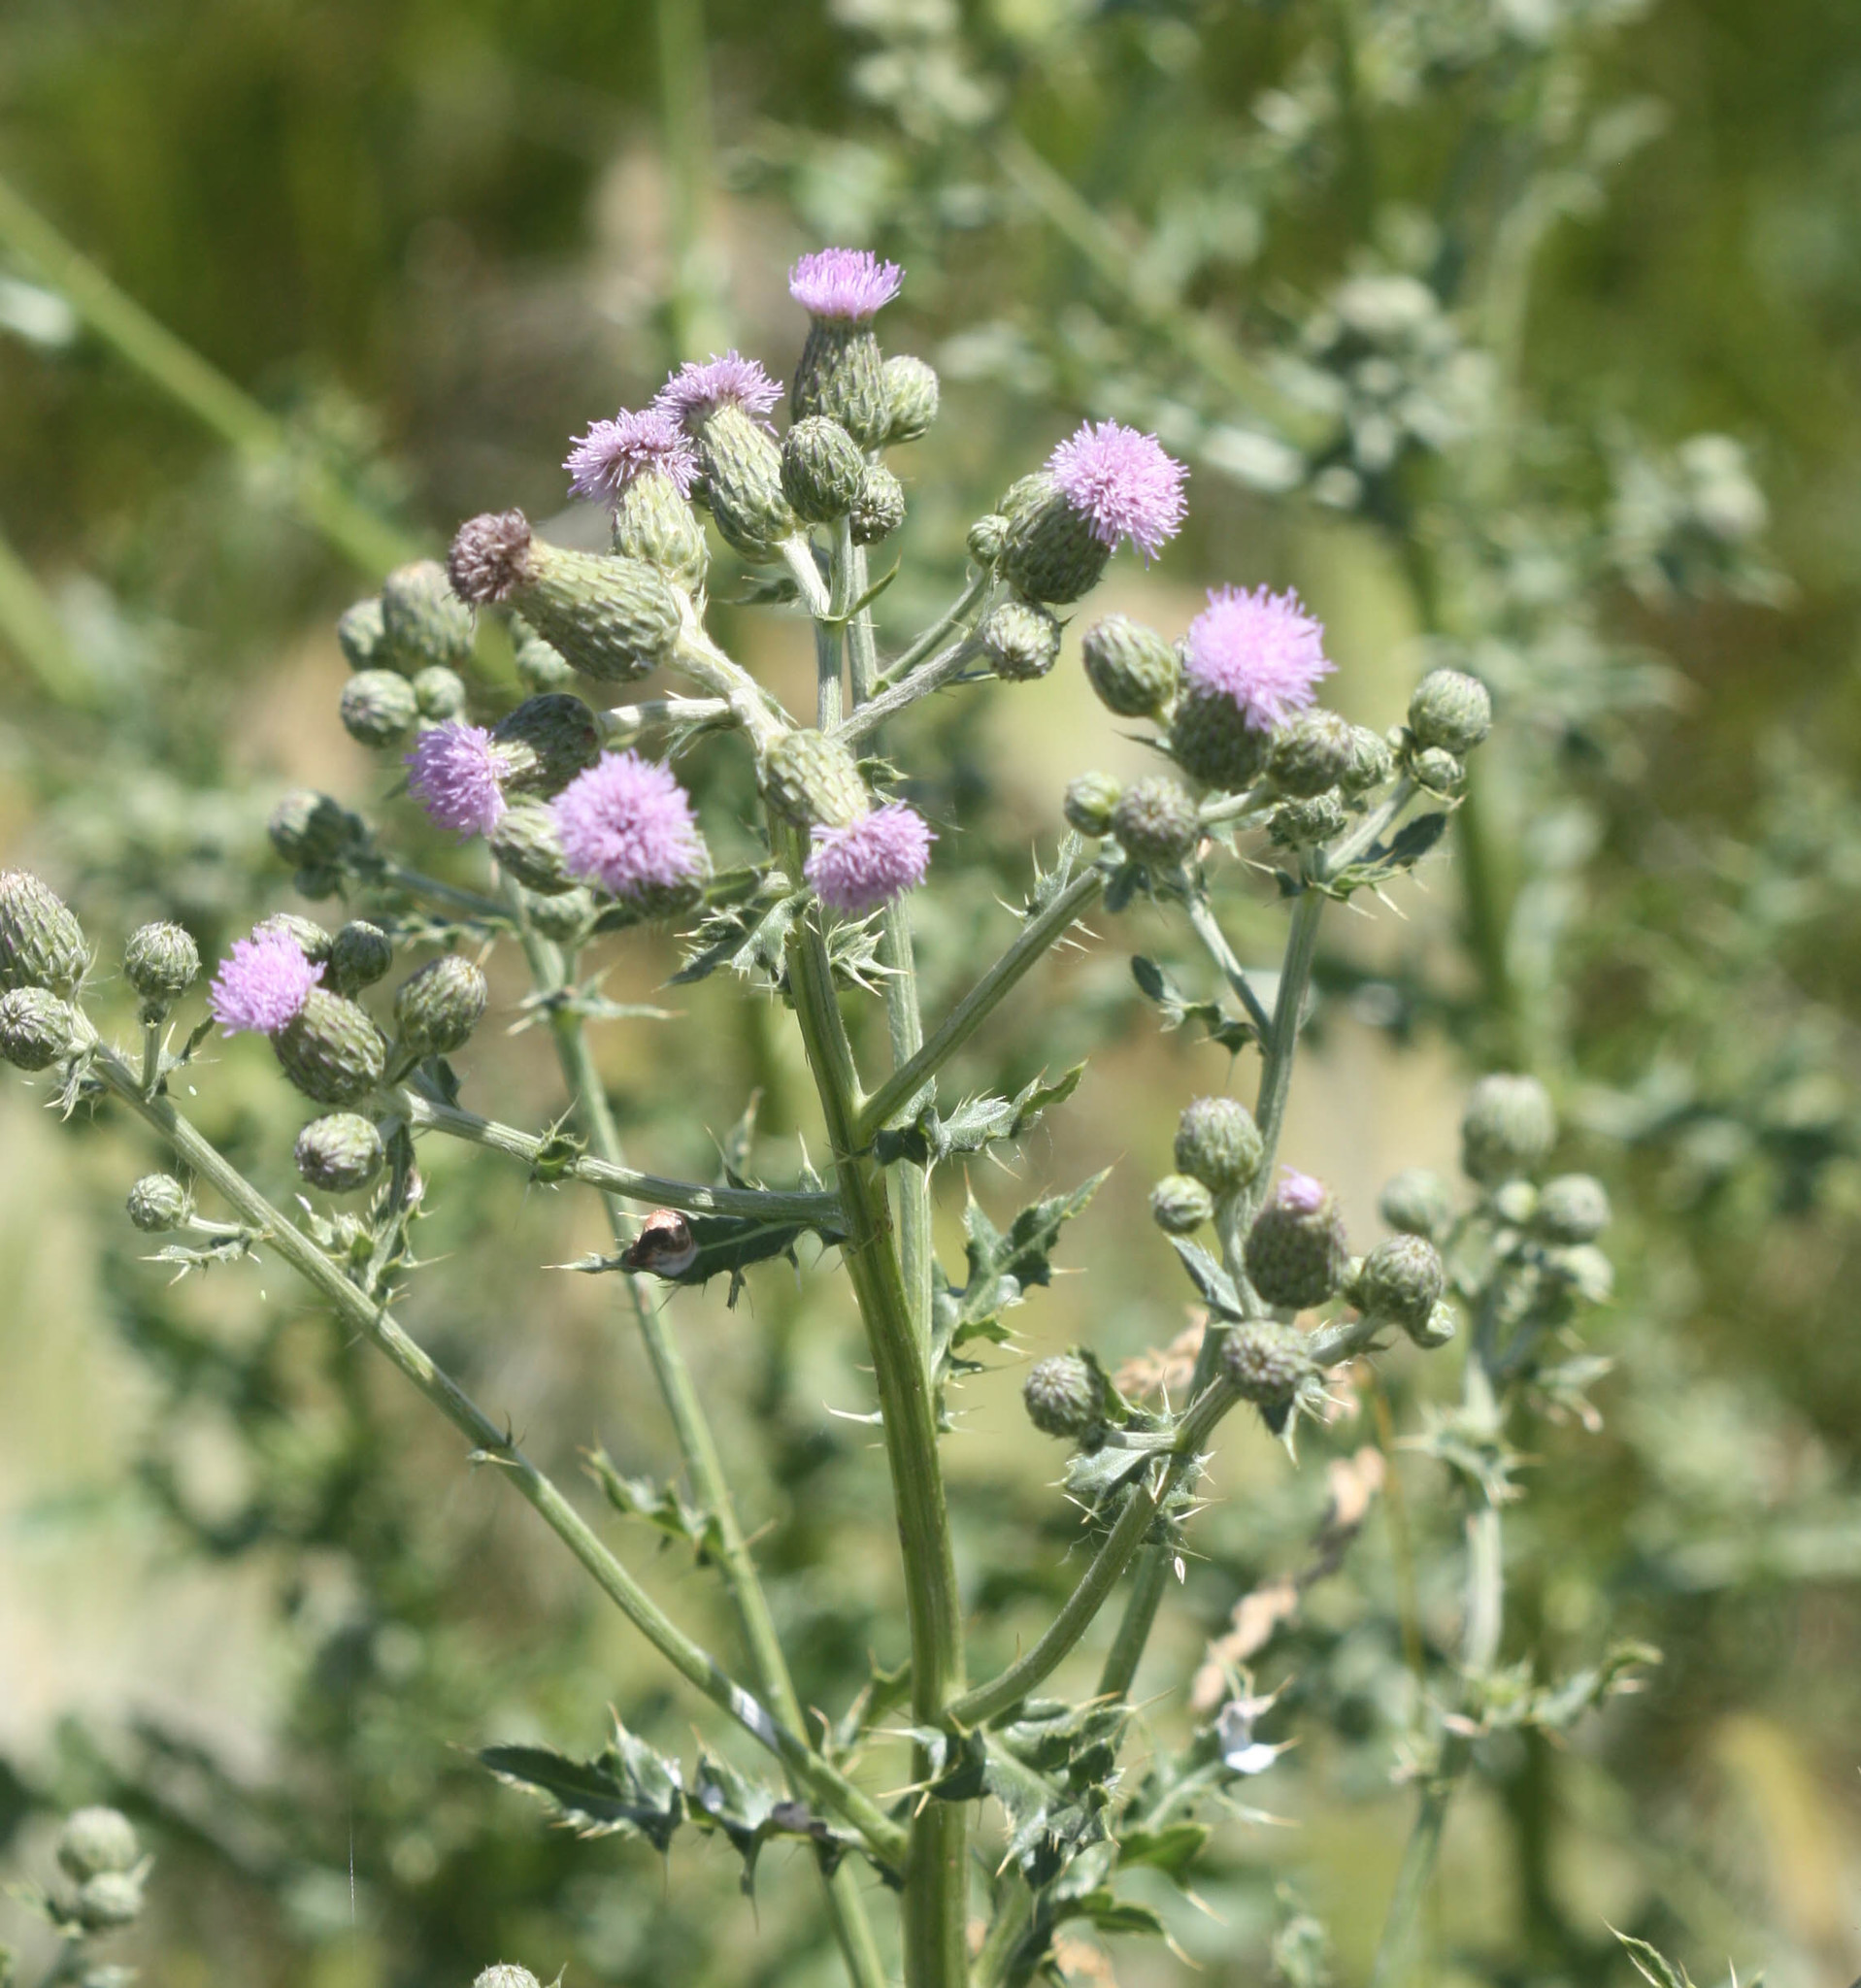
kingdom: Plantae
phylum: Tracheophyta
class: Magnoliopsida
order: Asterales
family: Asteraceae
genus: Cirsium
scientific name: Cirsium arvense
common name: Creeping thistle
